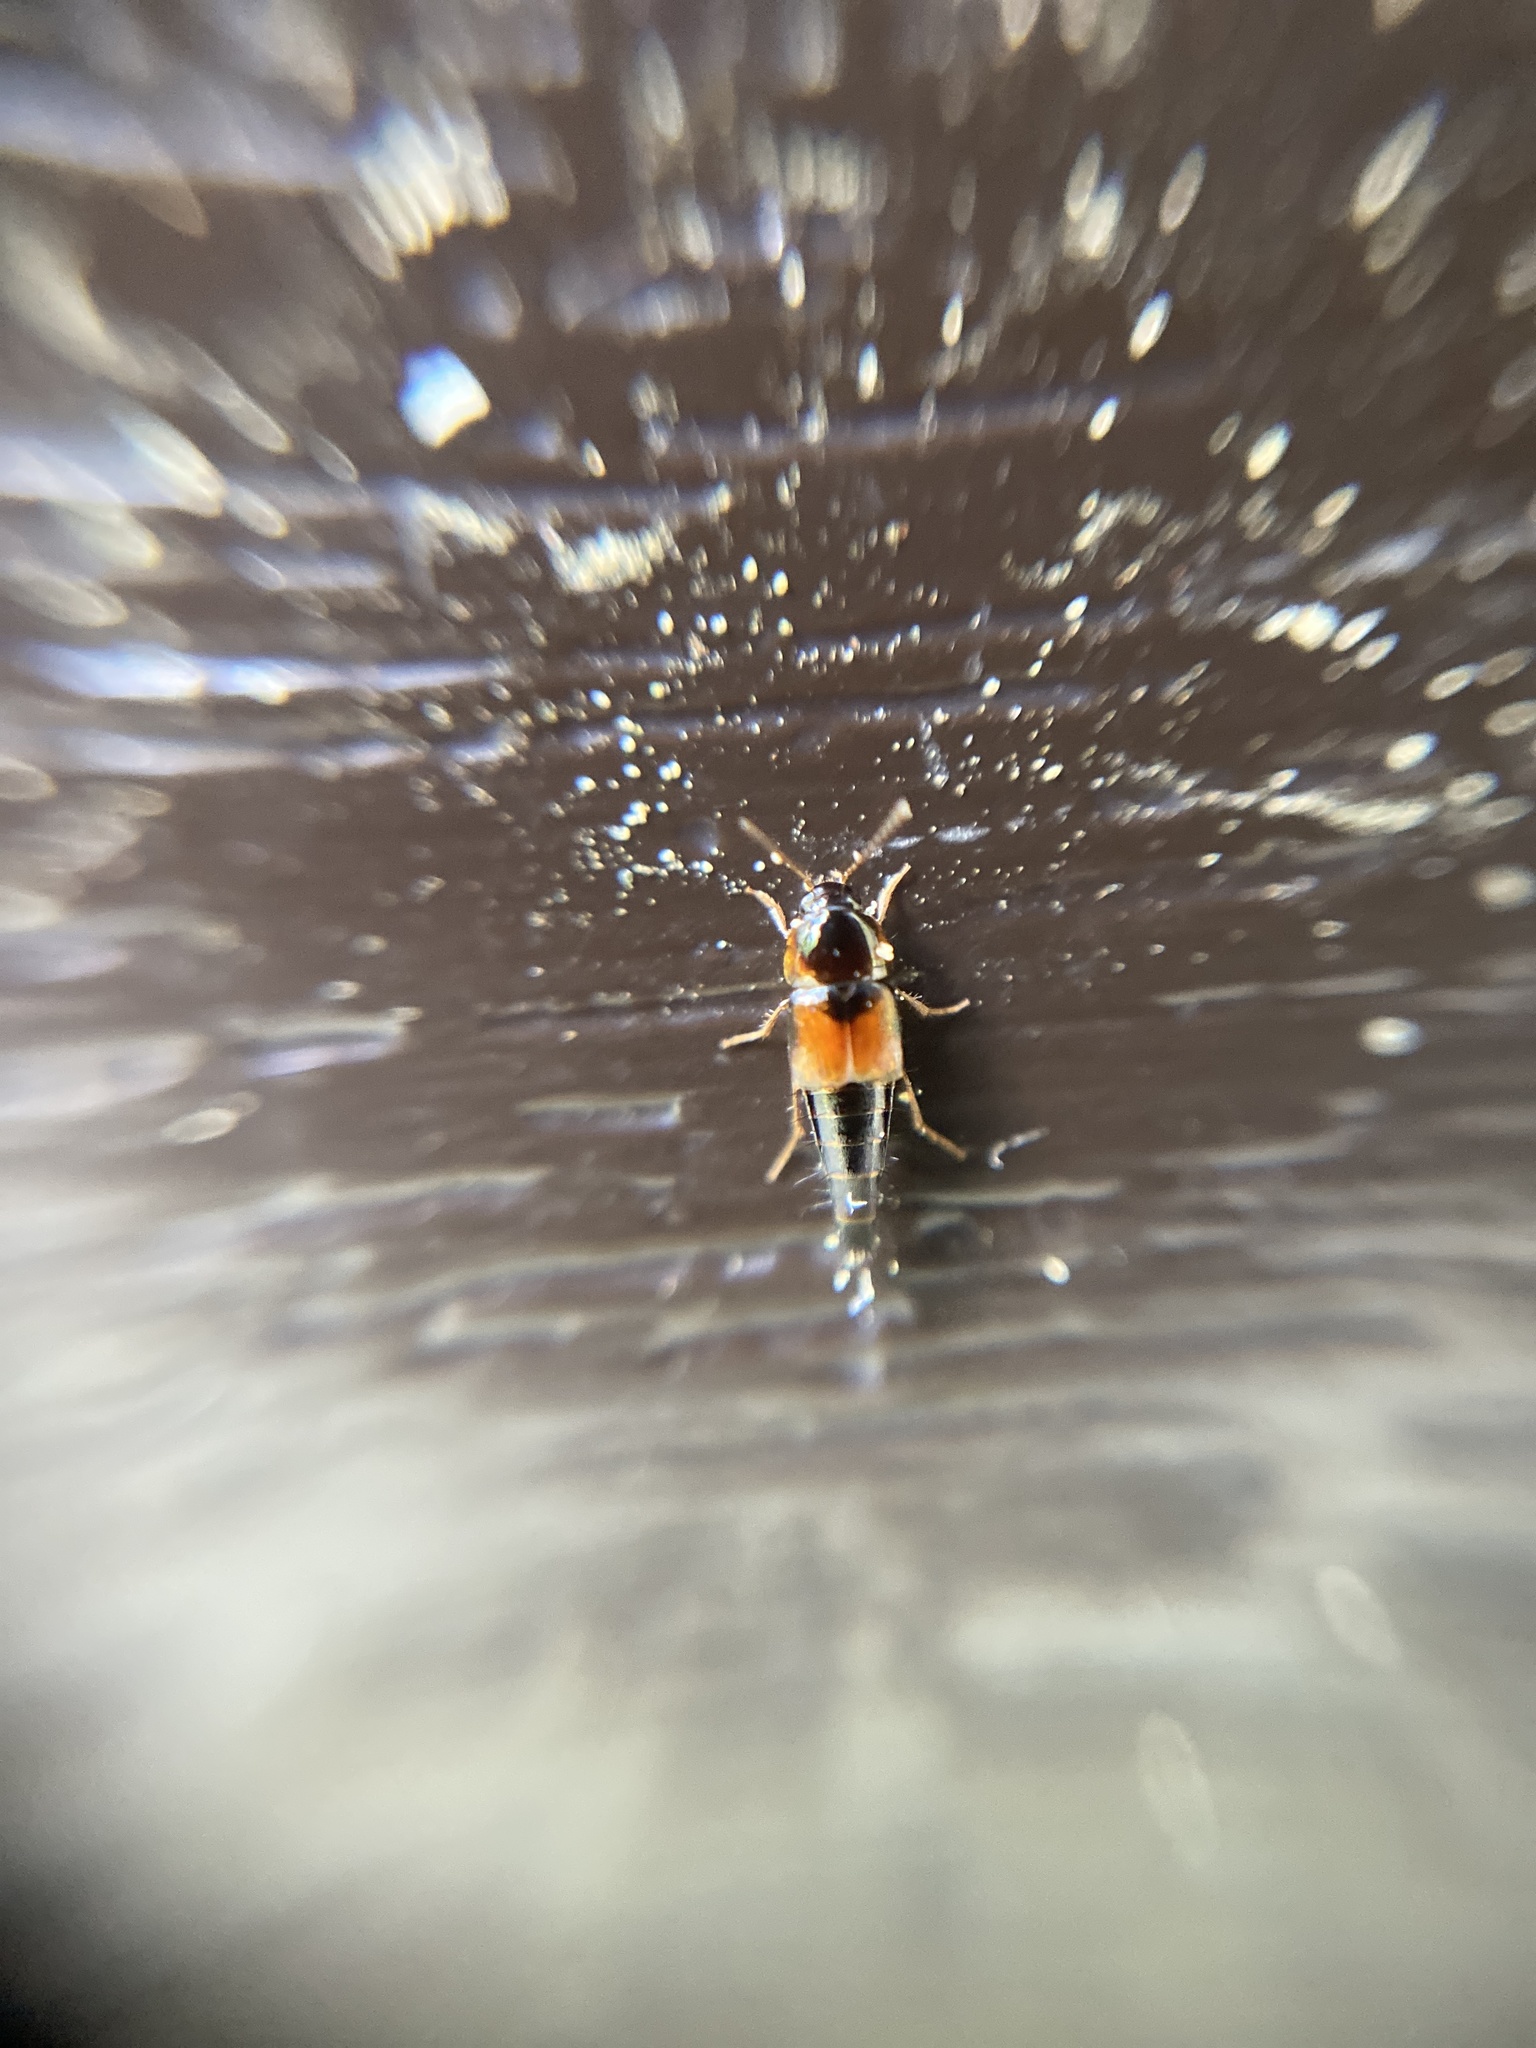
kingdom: Animalia
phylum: Arthropoda
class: Insecta
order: Coleoptera
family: Staphylinidae
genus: Tachyporus
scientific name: Tachyporus hypnorum
